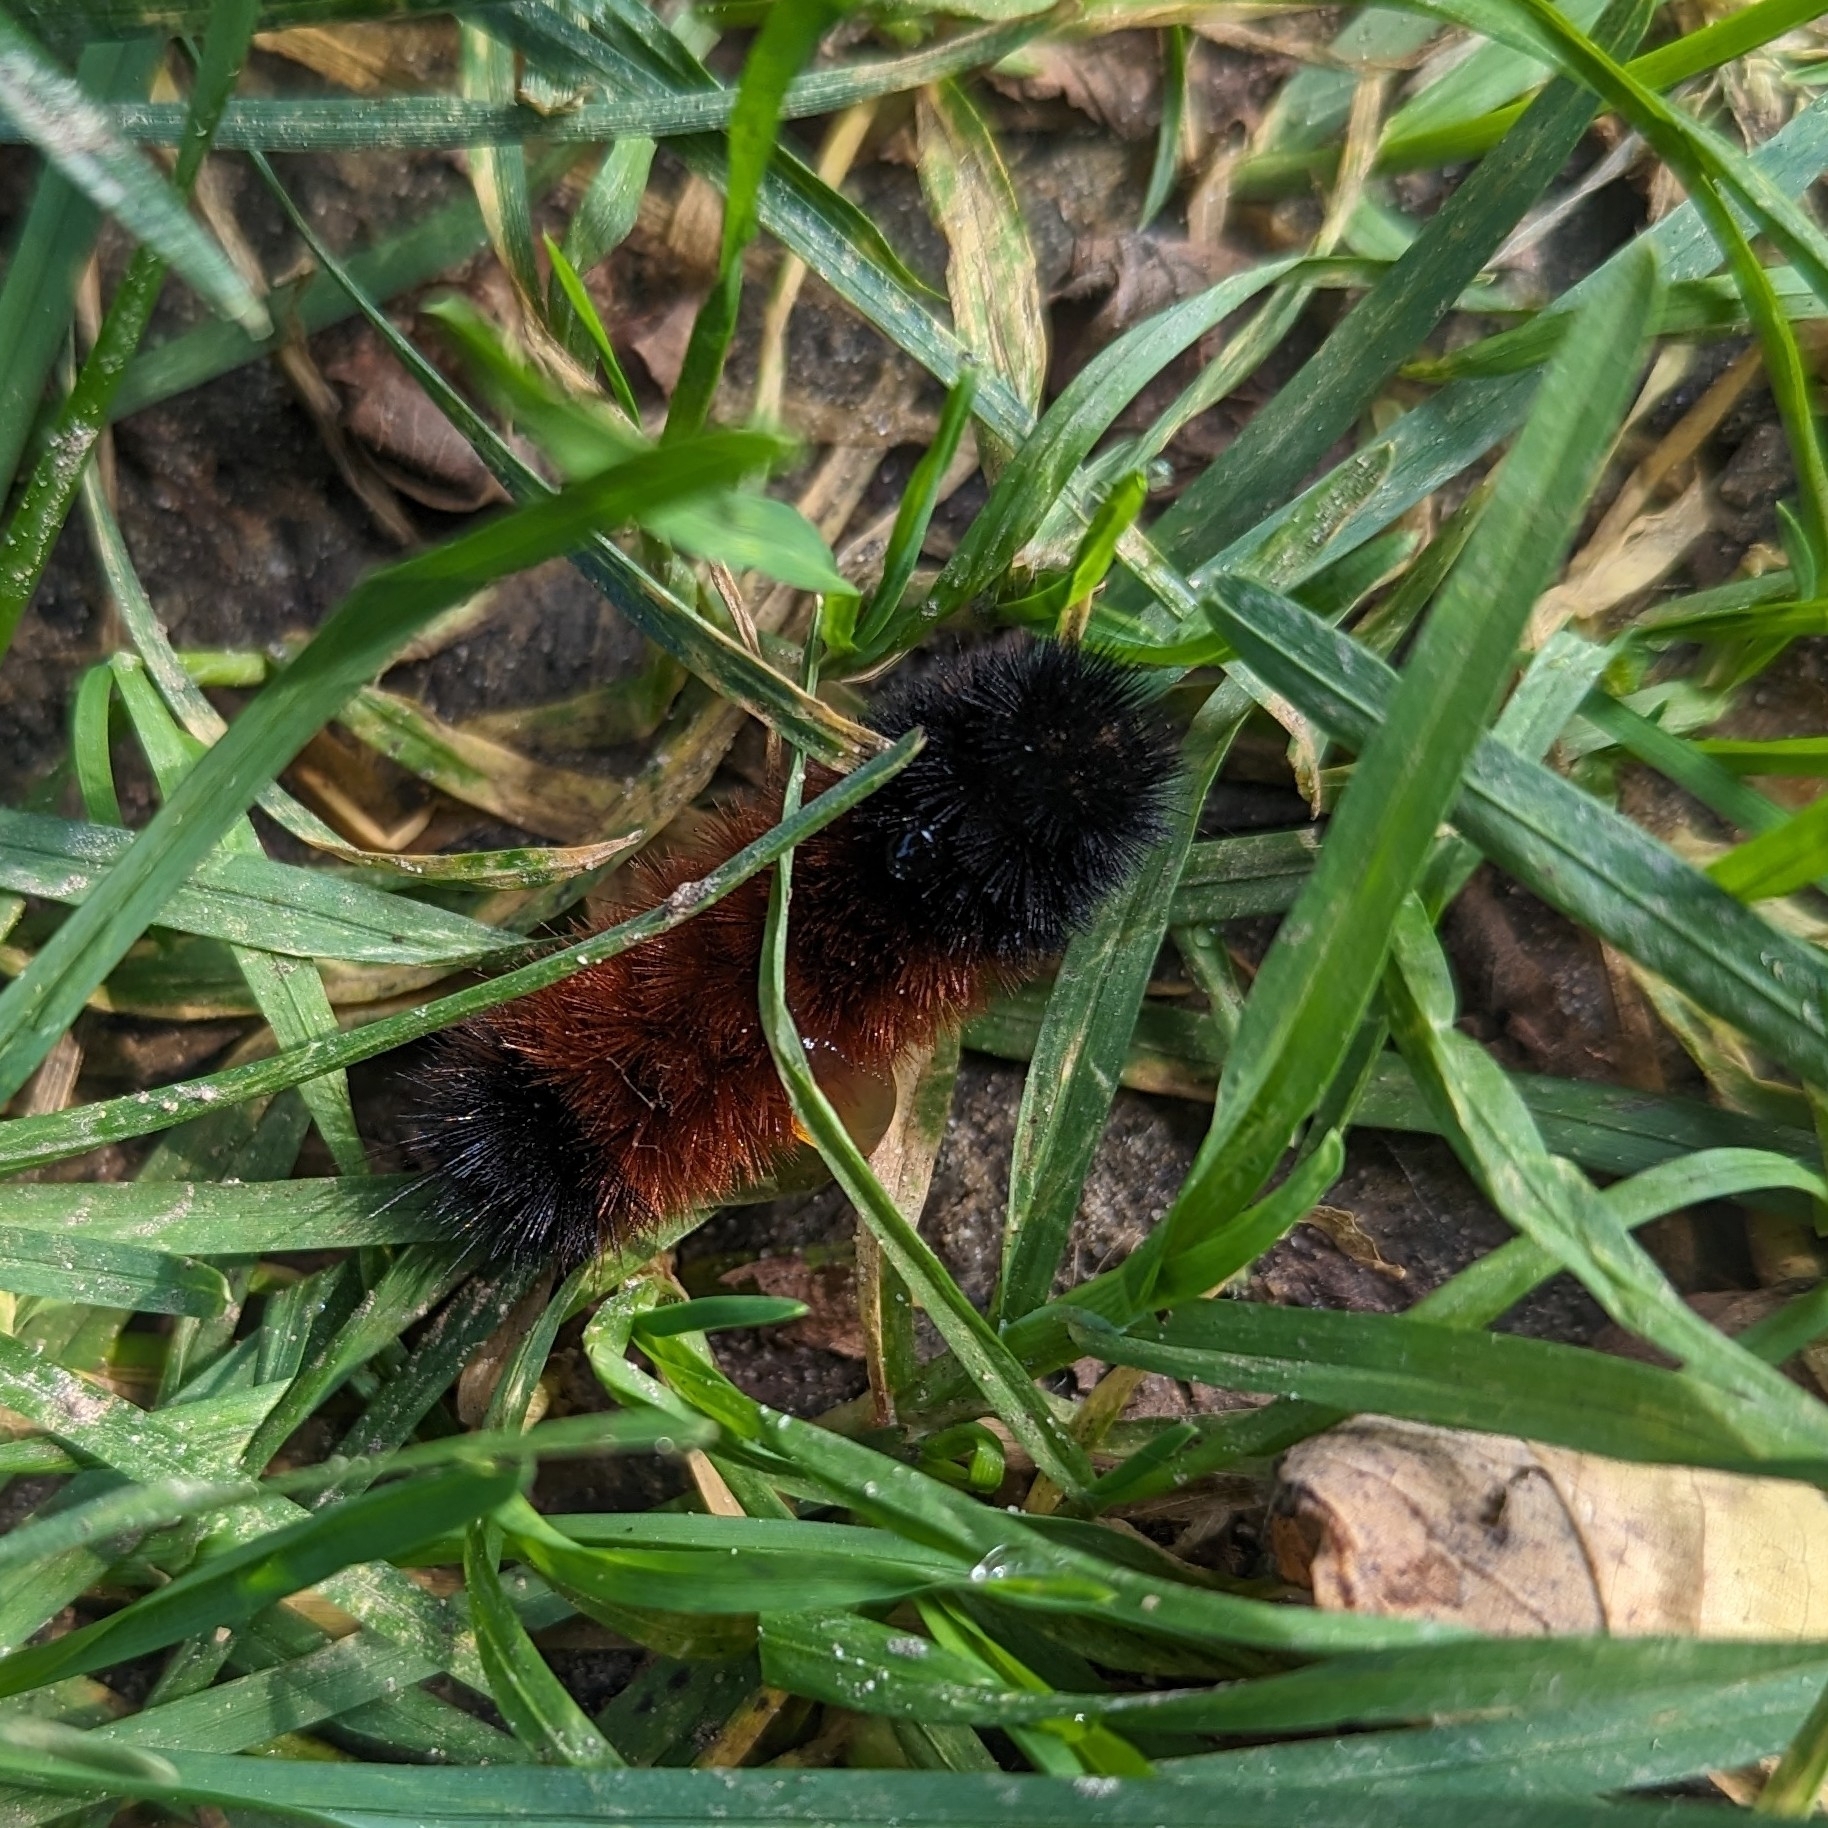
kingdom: Animalia
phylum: Arthropoda
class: Insecta
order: Lepidoptera
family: Erebidae
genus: Pyrrharctia
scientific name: Pyrrharctia isabella
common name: Isabella tiger moth
